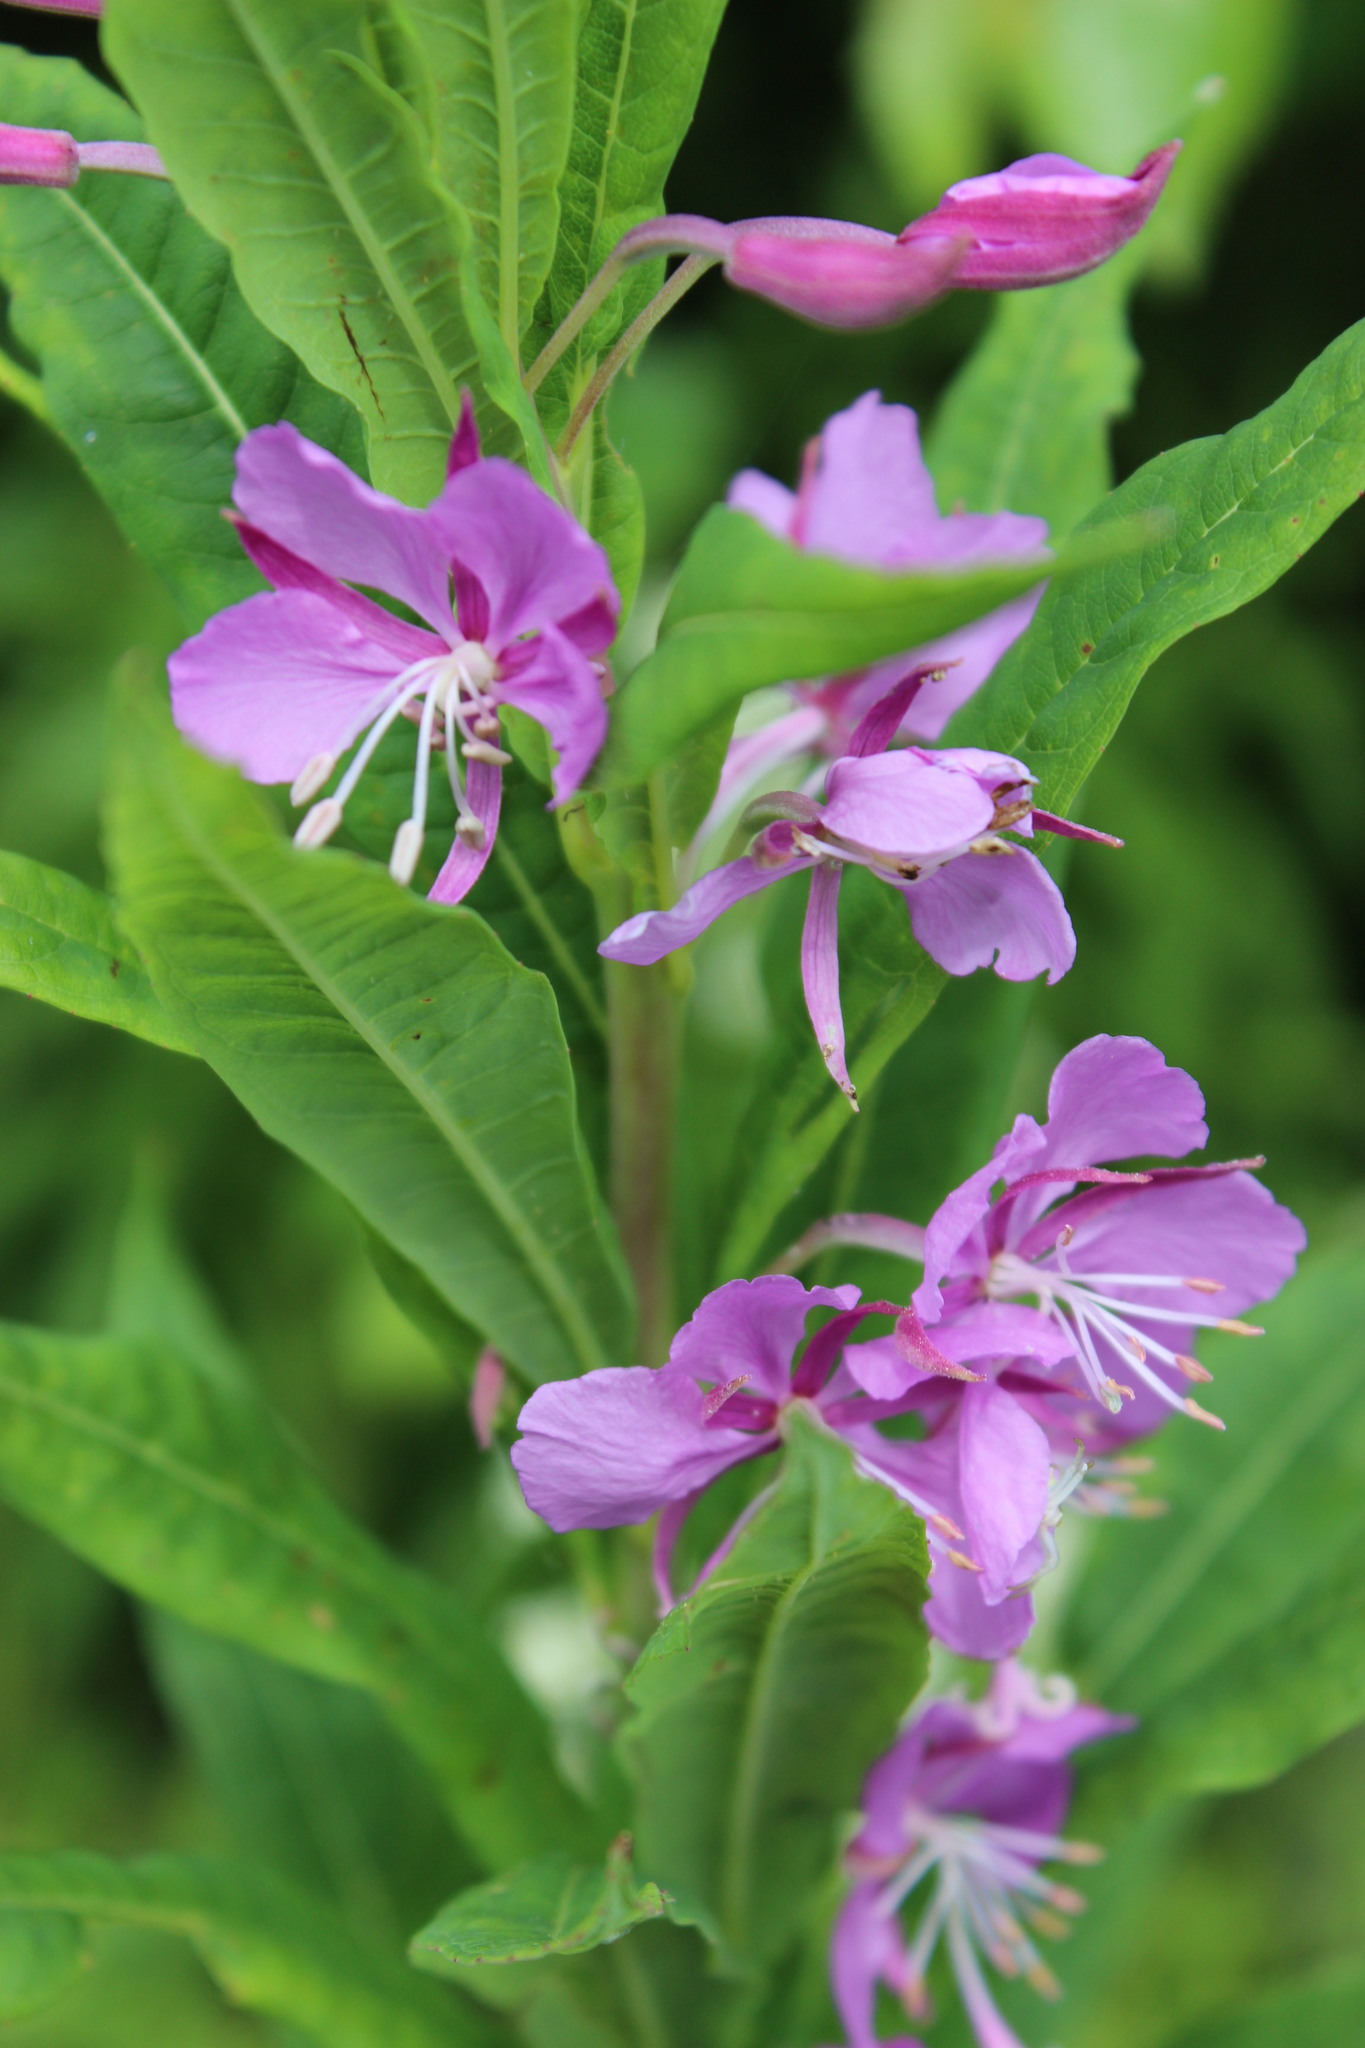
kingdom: Plantae
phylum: Tracheophyta
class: Magnoliopsida
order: Myrtales
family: Onagraceae
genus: Chamaenerion
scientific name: Chamaenerion angustifolium
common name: Fireweed
